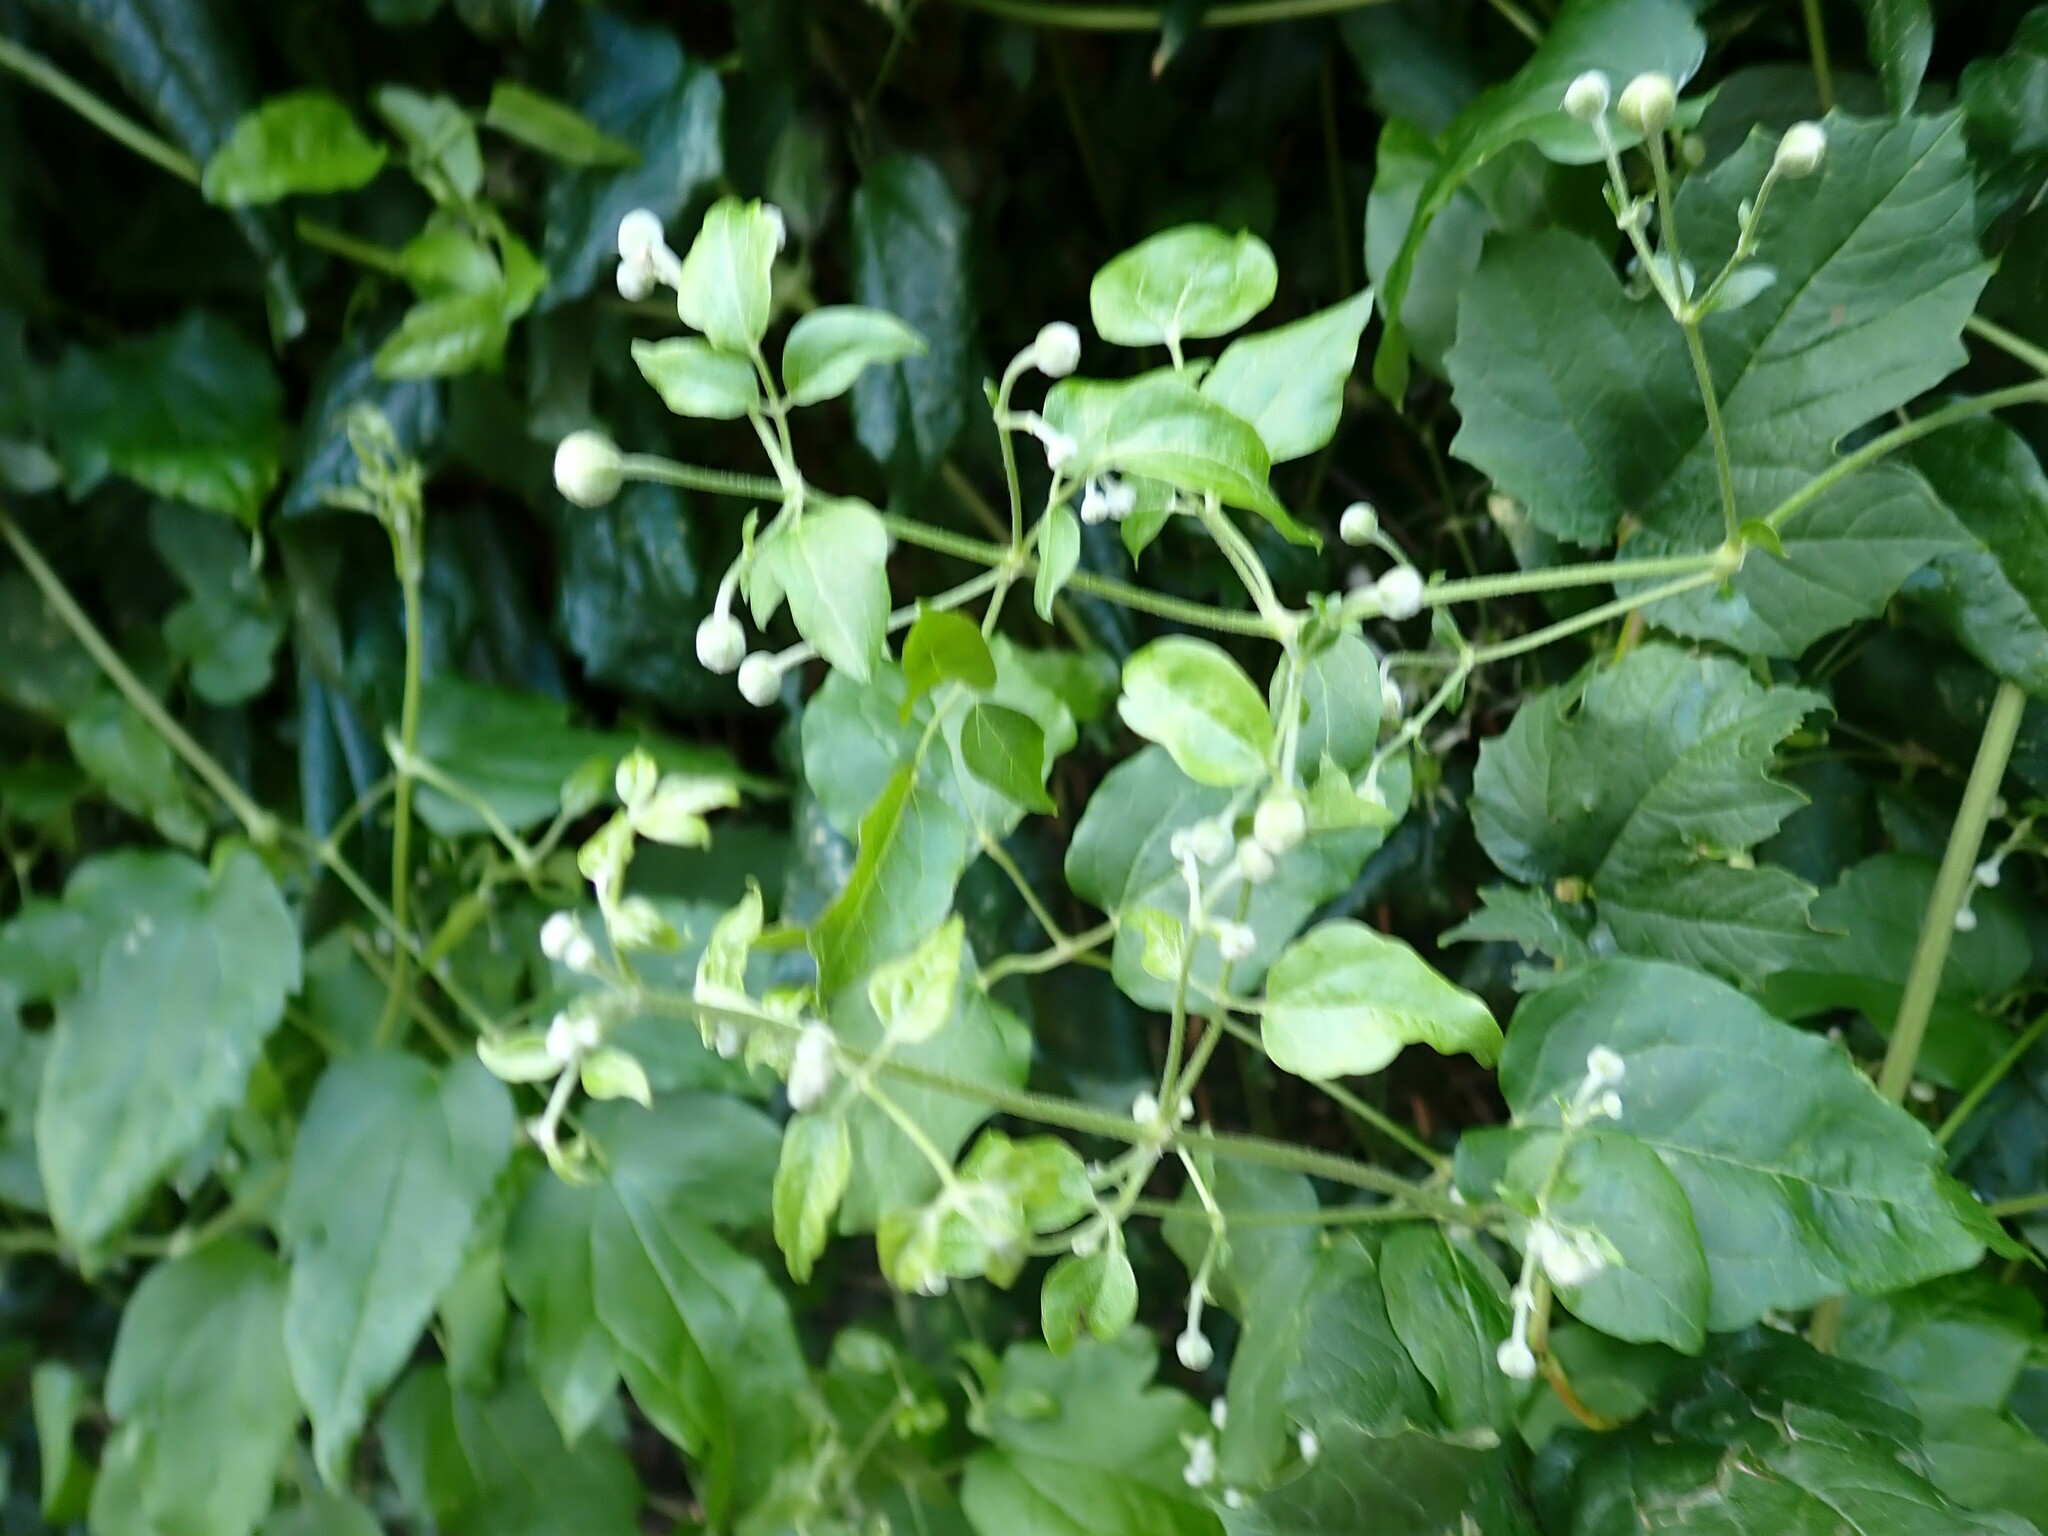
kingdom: Plantae
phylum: Tracheophyta
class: Magnoliopsida
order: Ranunculales
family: Ranunculaceae
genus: Clematis
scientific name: Clematis vitalba
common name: Evergreen clematis
